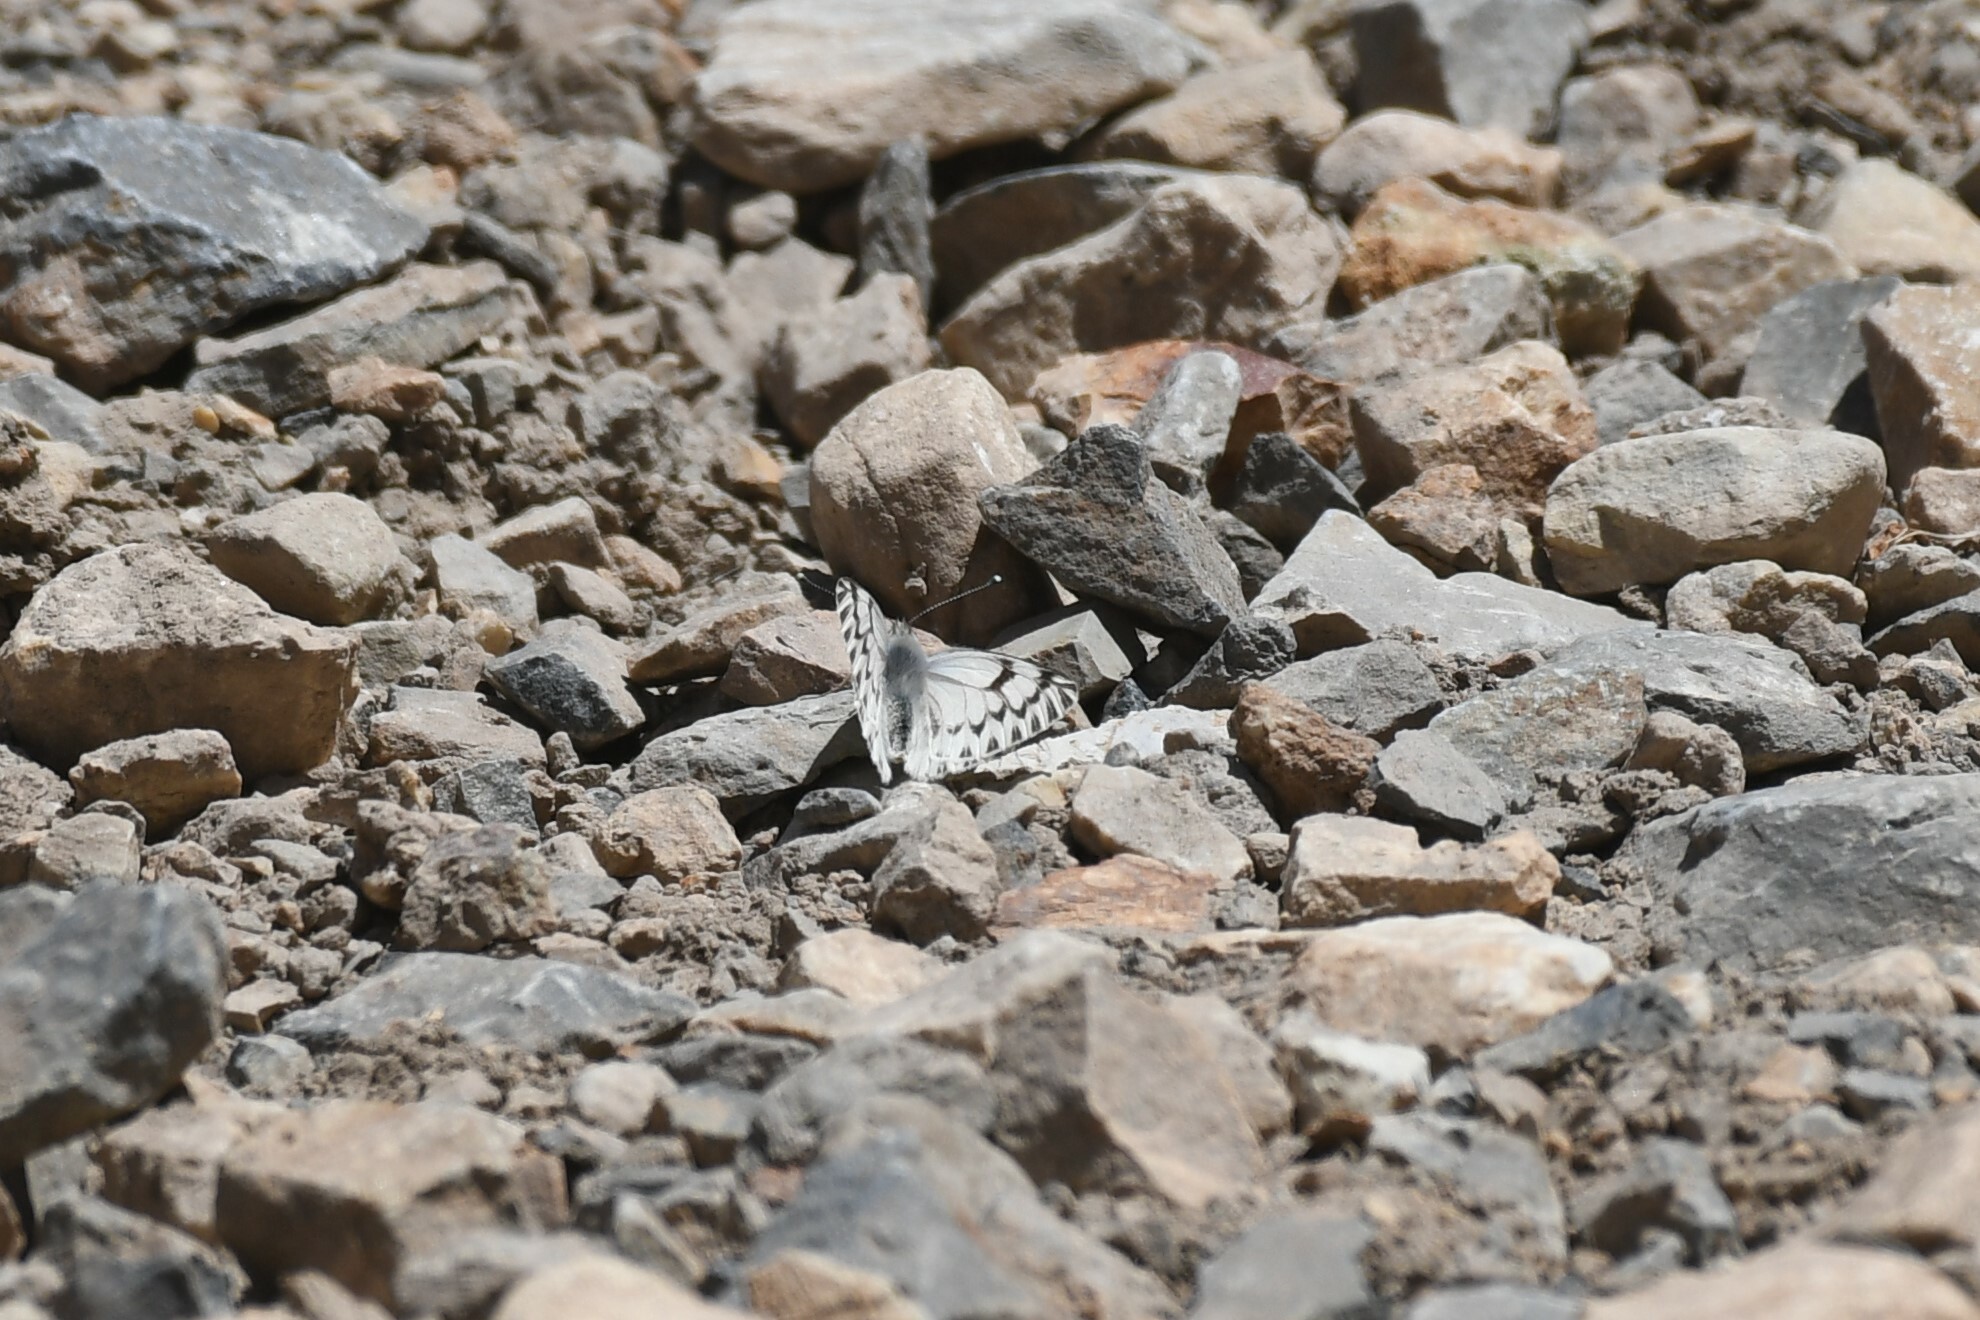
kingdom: Animalia
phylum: Arthropoda
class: Insecta
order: Lepidoptera
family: Pieridae
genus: Tatochila
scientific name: Tatochila mercedis
